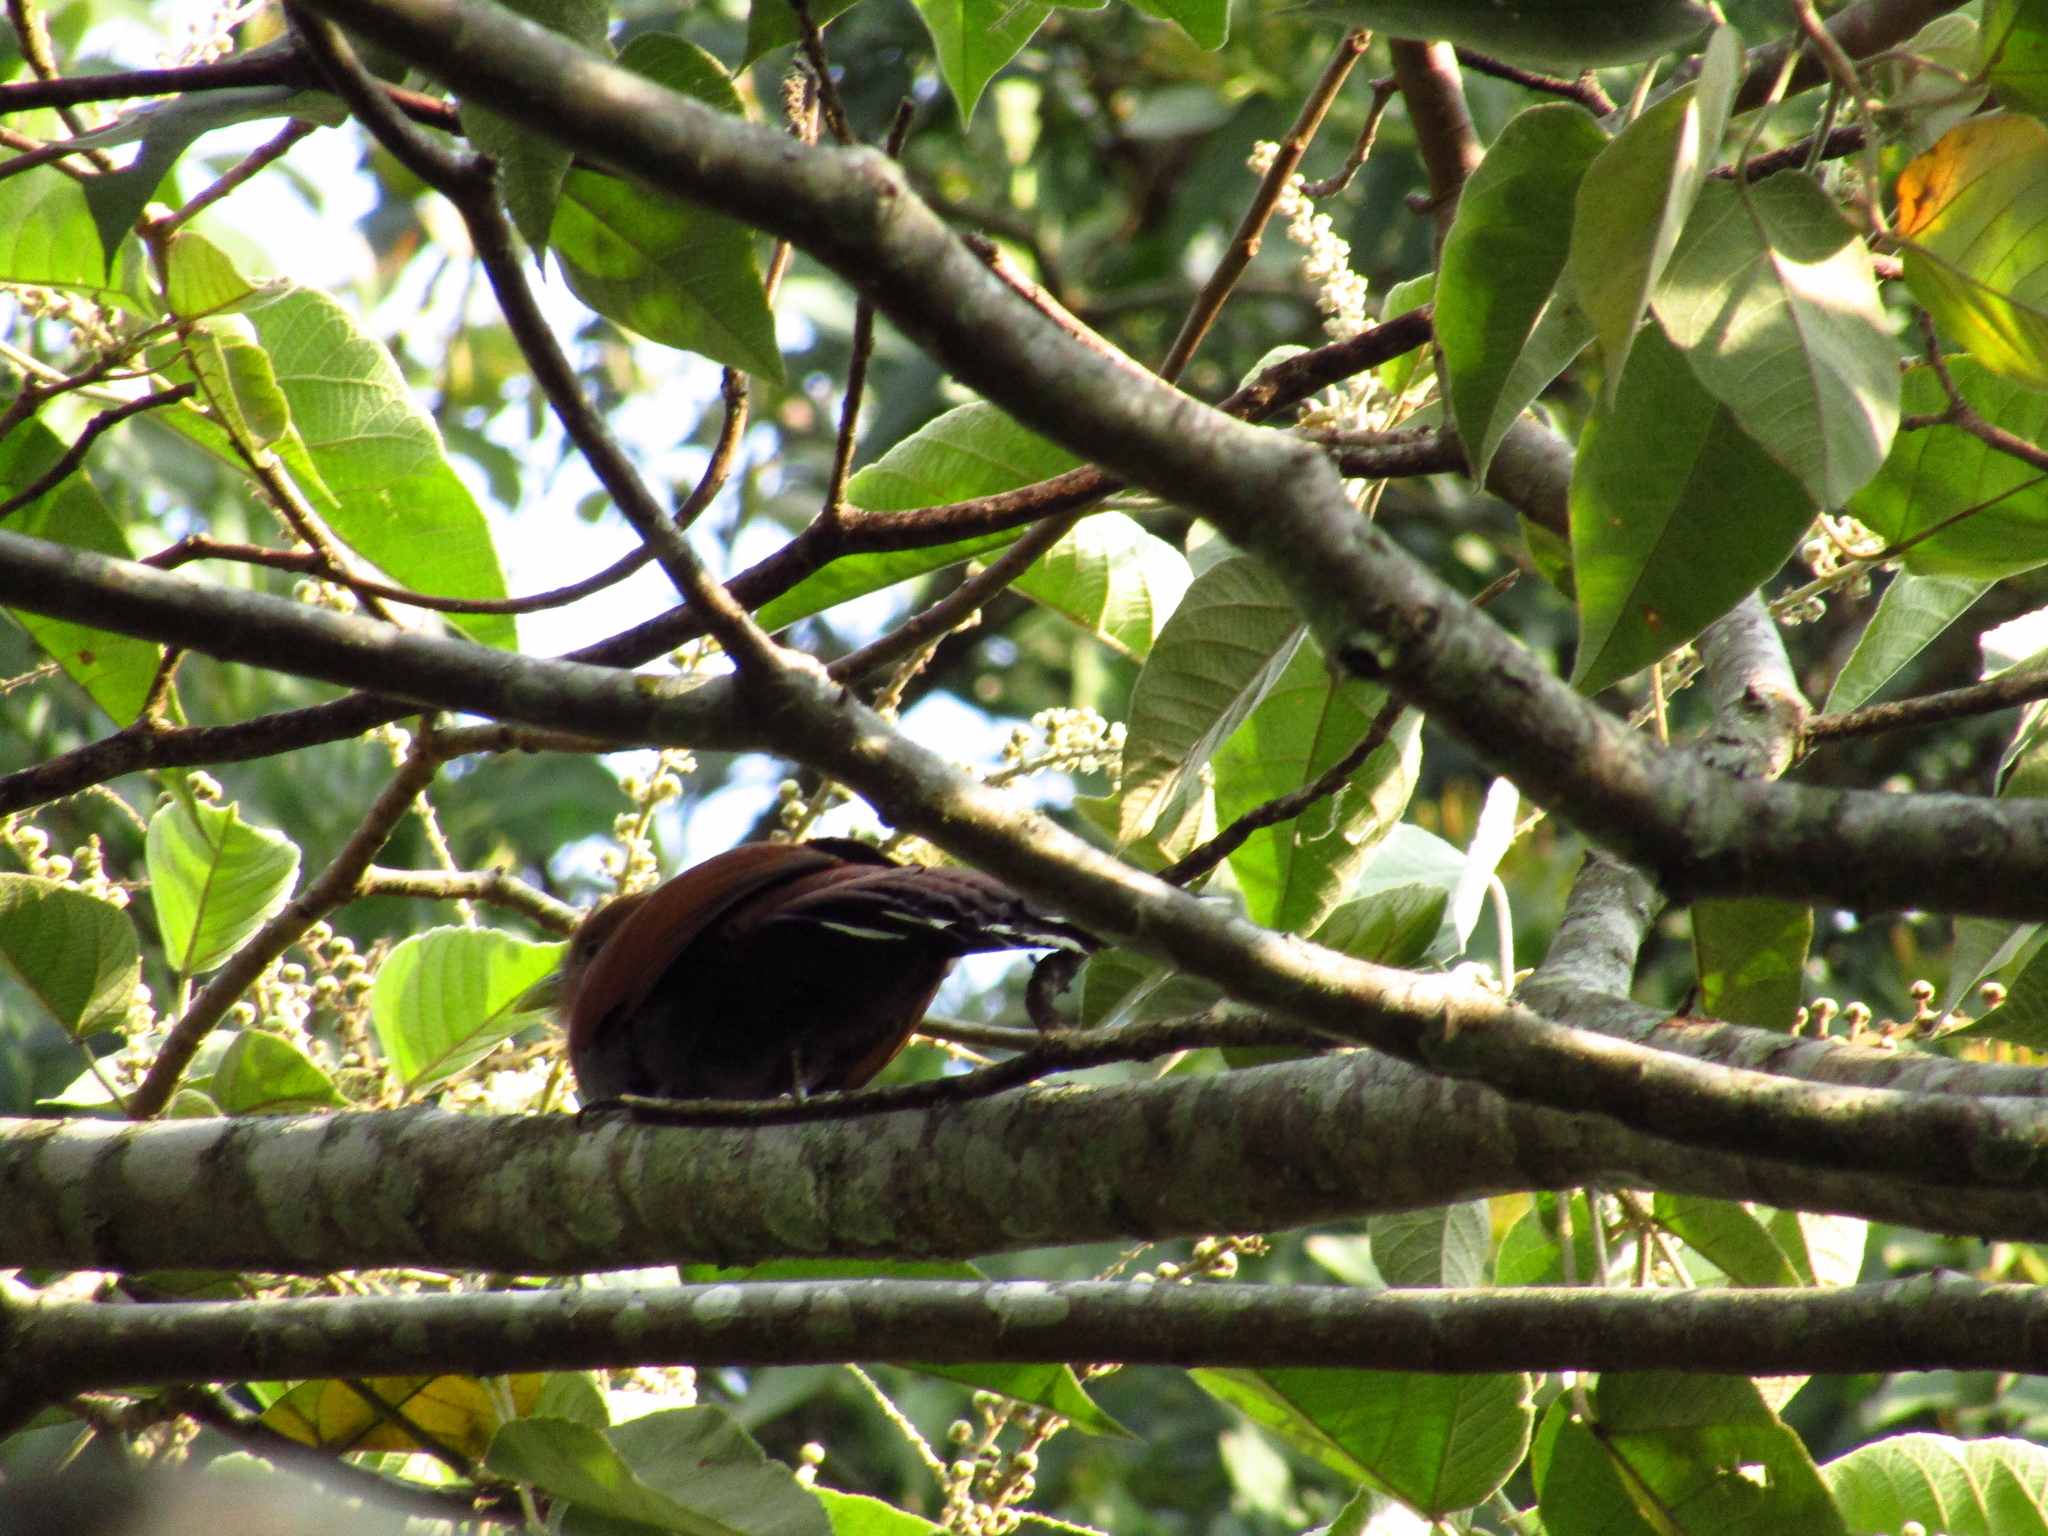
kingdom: Animalia
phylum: Chordata
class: Aves
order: Cuculiformes
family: Cuculidae
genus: Piaya
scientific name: Piaya cayana
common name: Squirrel cuckoo
